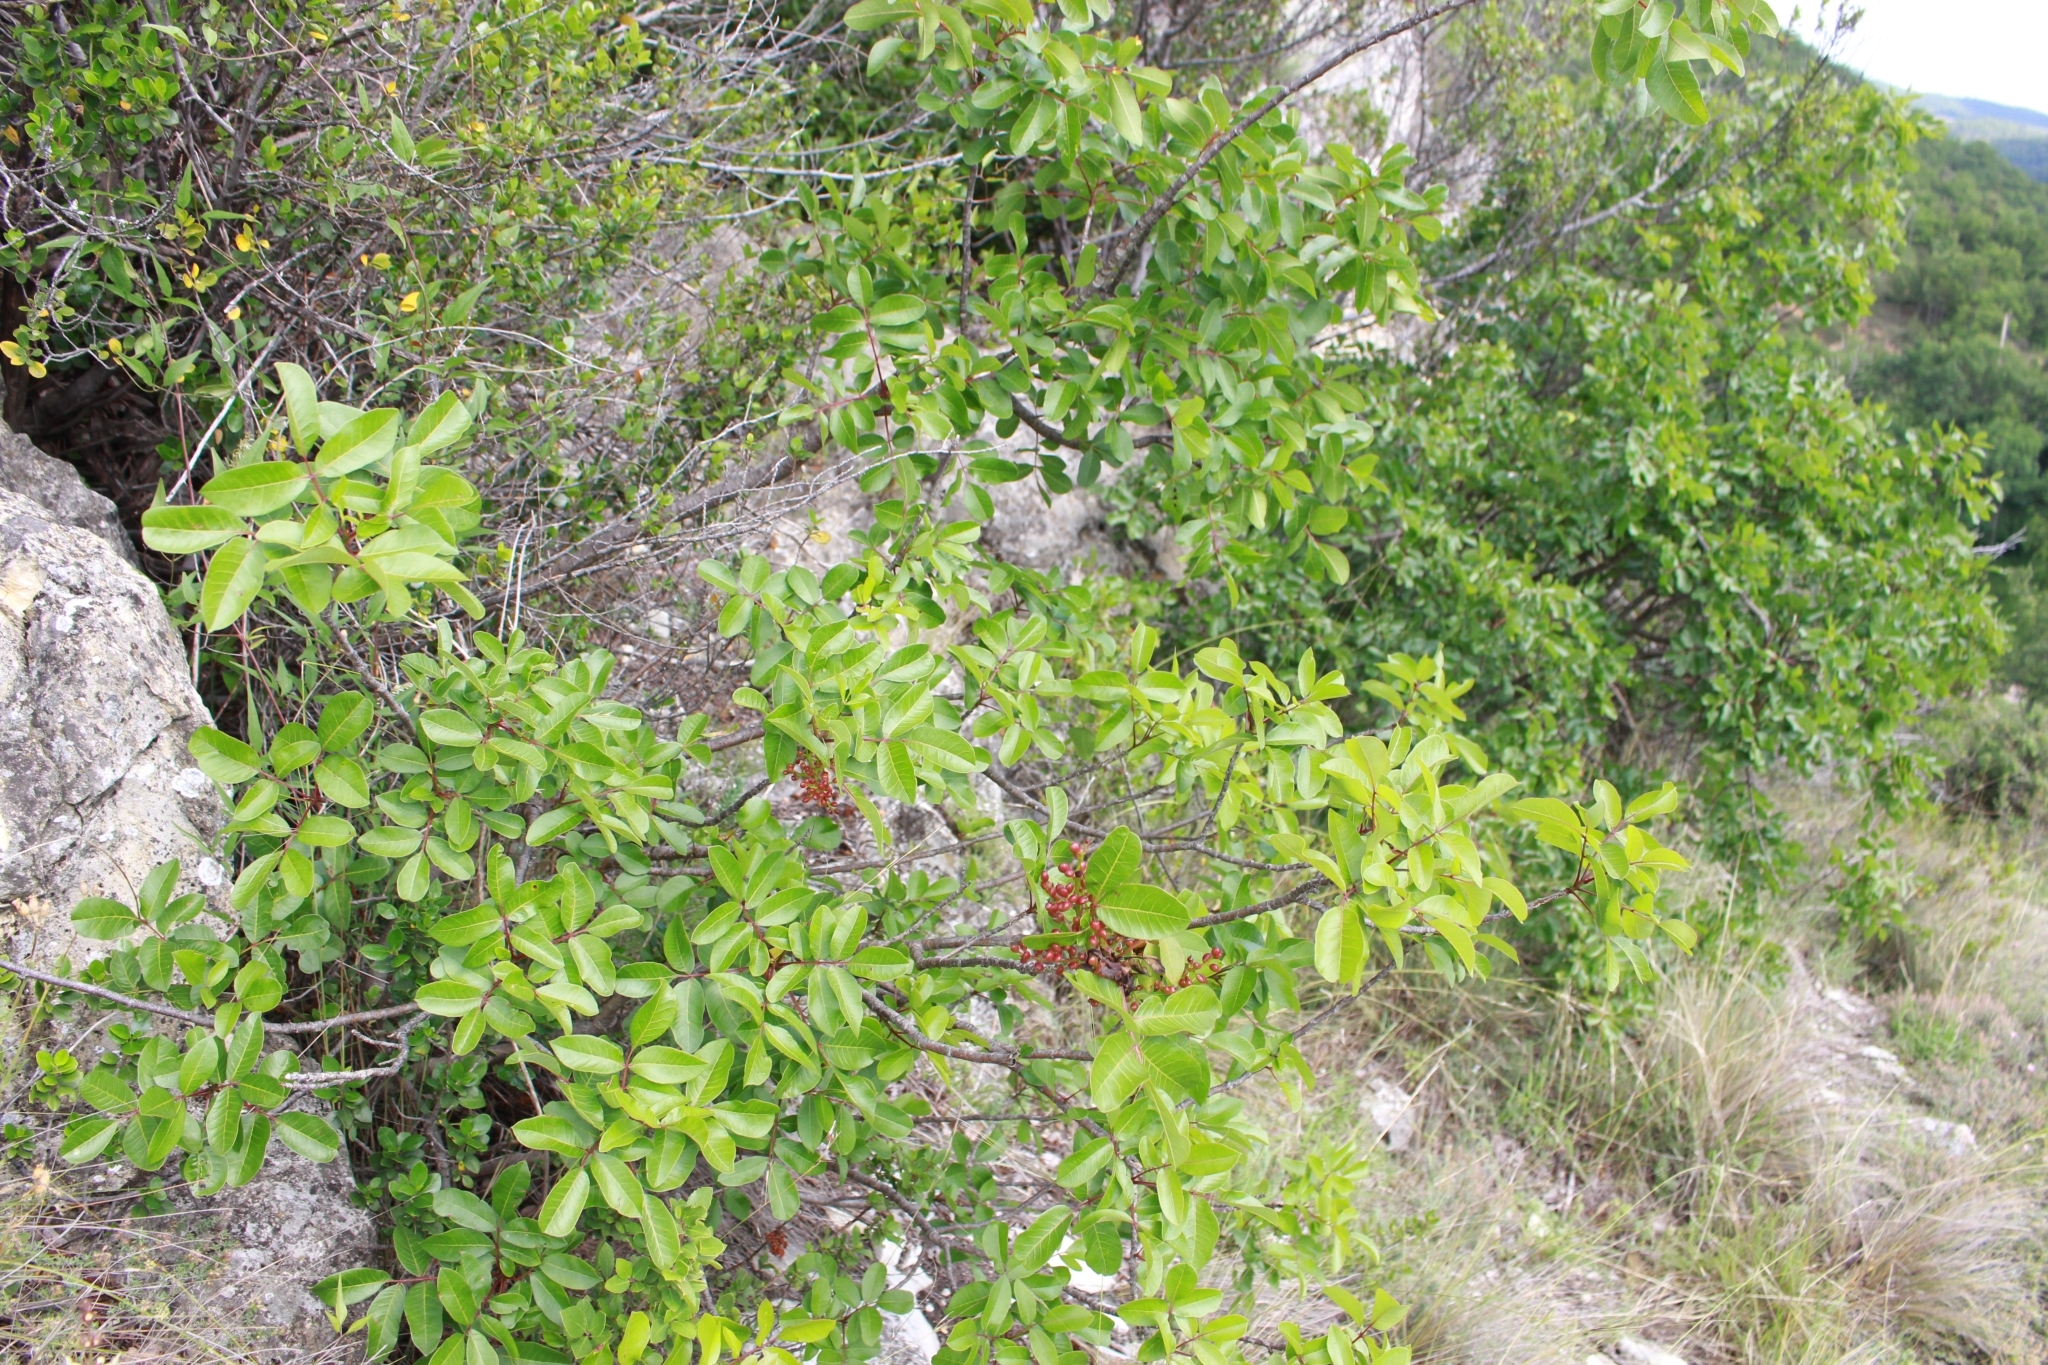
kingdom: Plantae
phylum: Tracheophyta
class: Magnoliopsida
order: Sapindales
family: Anacardiaceae
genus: Pistacia
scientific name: Pistacia terebinthus
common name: Terebinth
